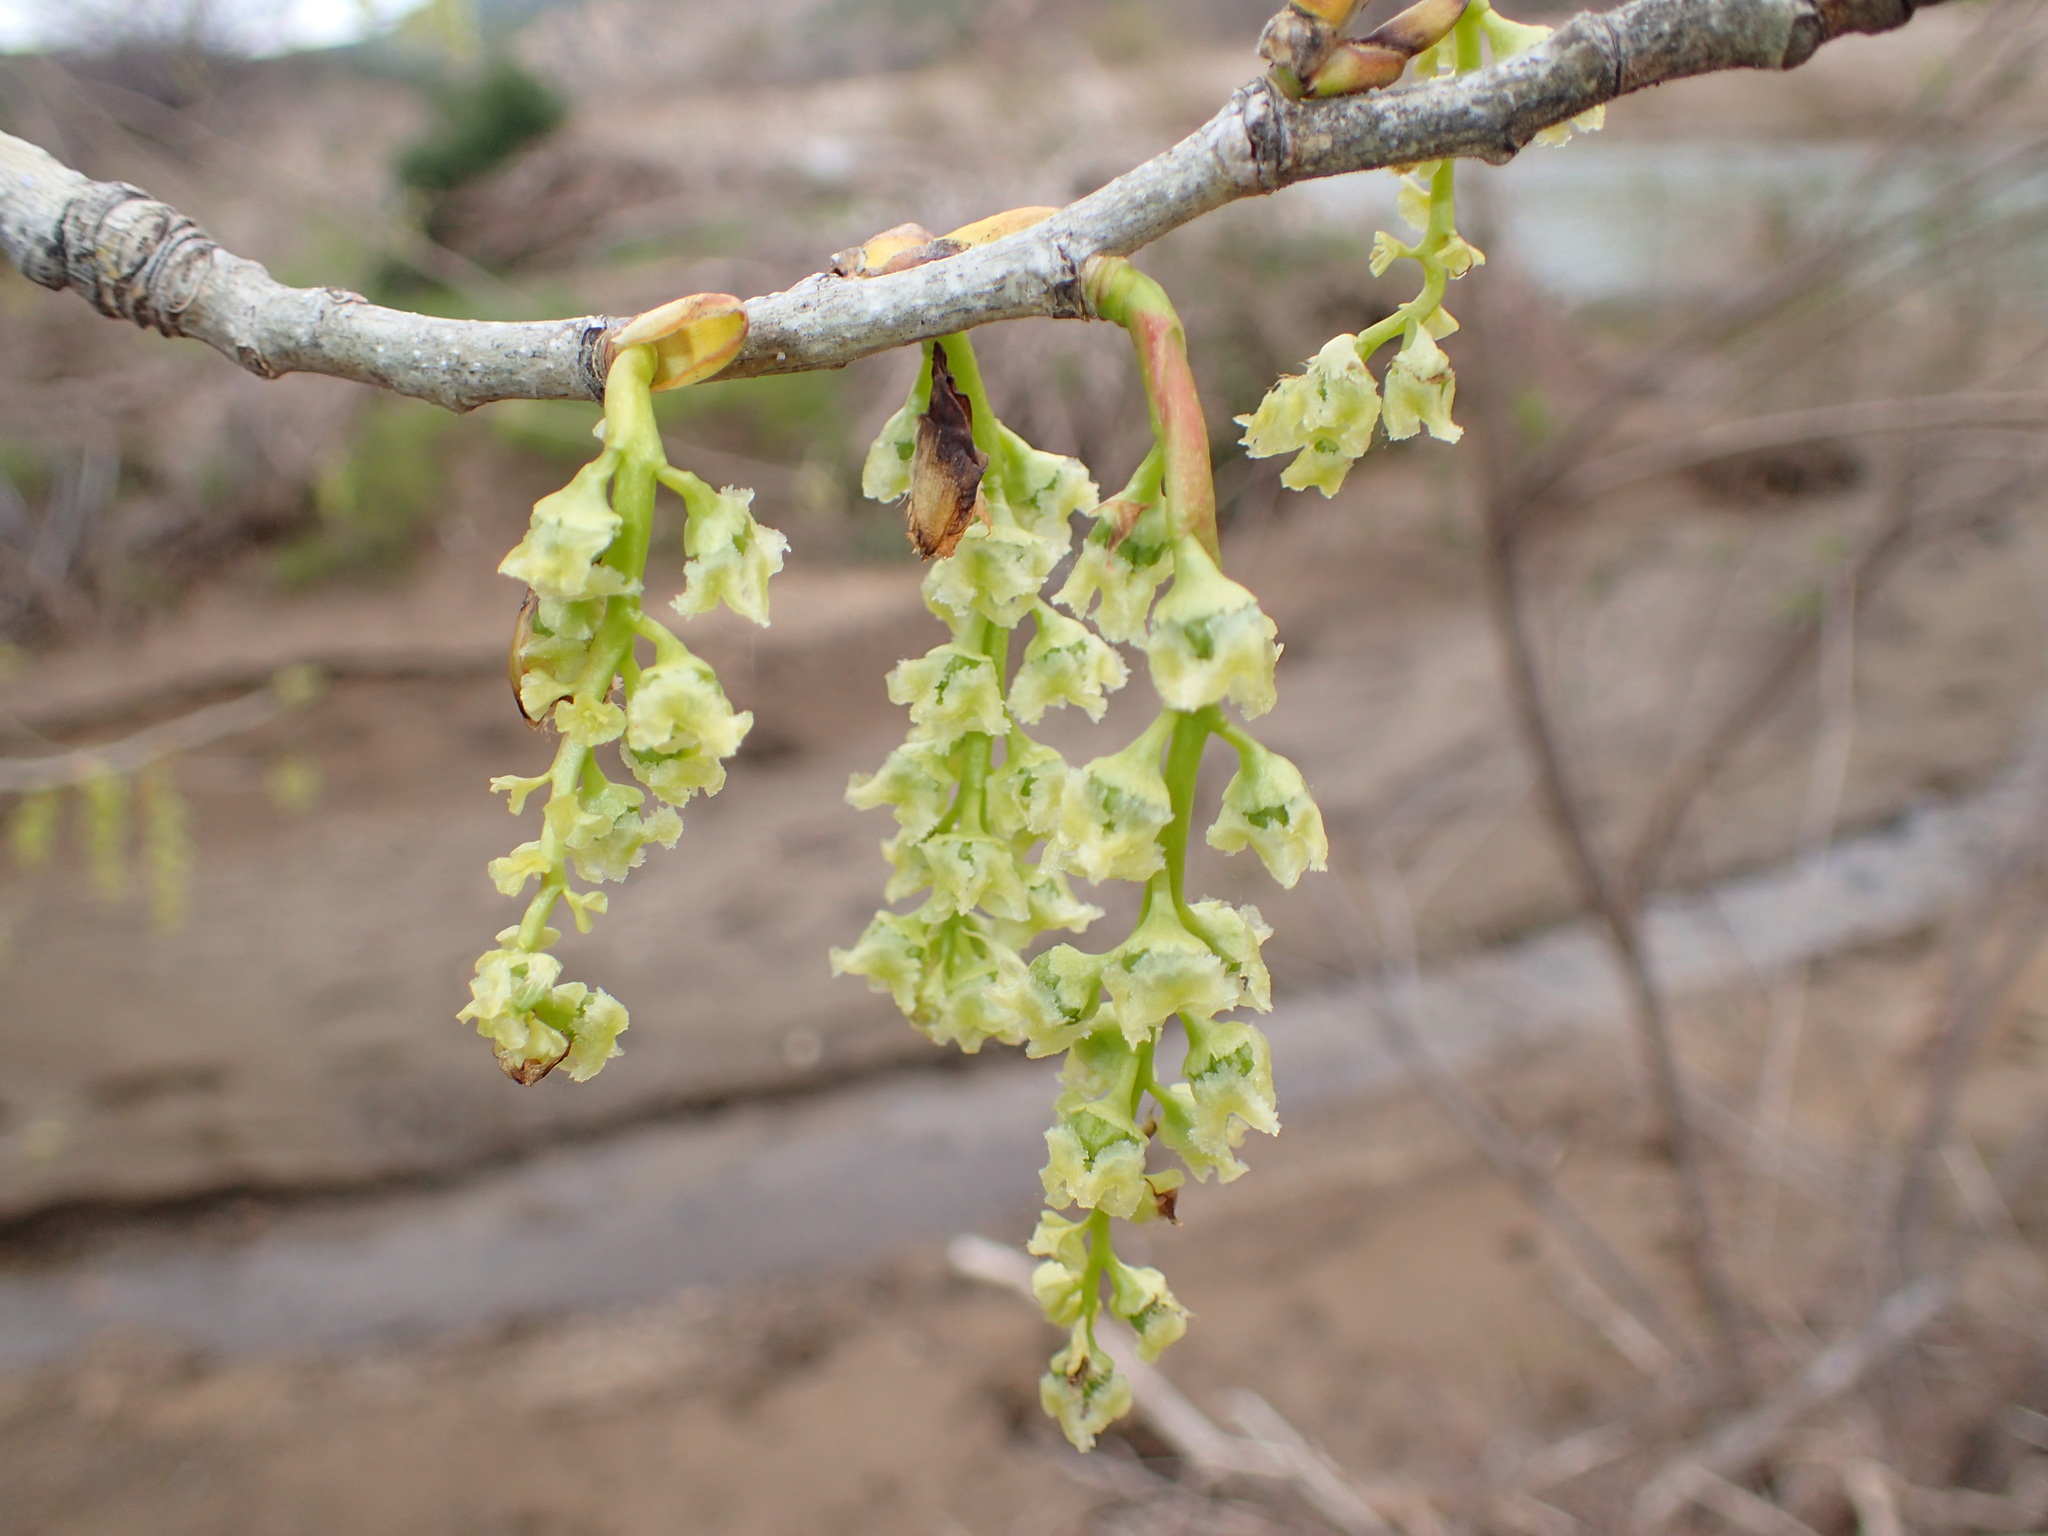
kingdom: Plantae
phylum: Tracheophyta
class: Magnoliopsida
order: Malpighiales
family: Salicaceae
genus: Populus
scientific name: Populus fremontii
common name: Fremont's cottonwood
